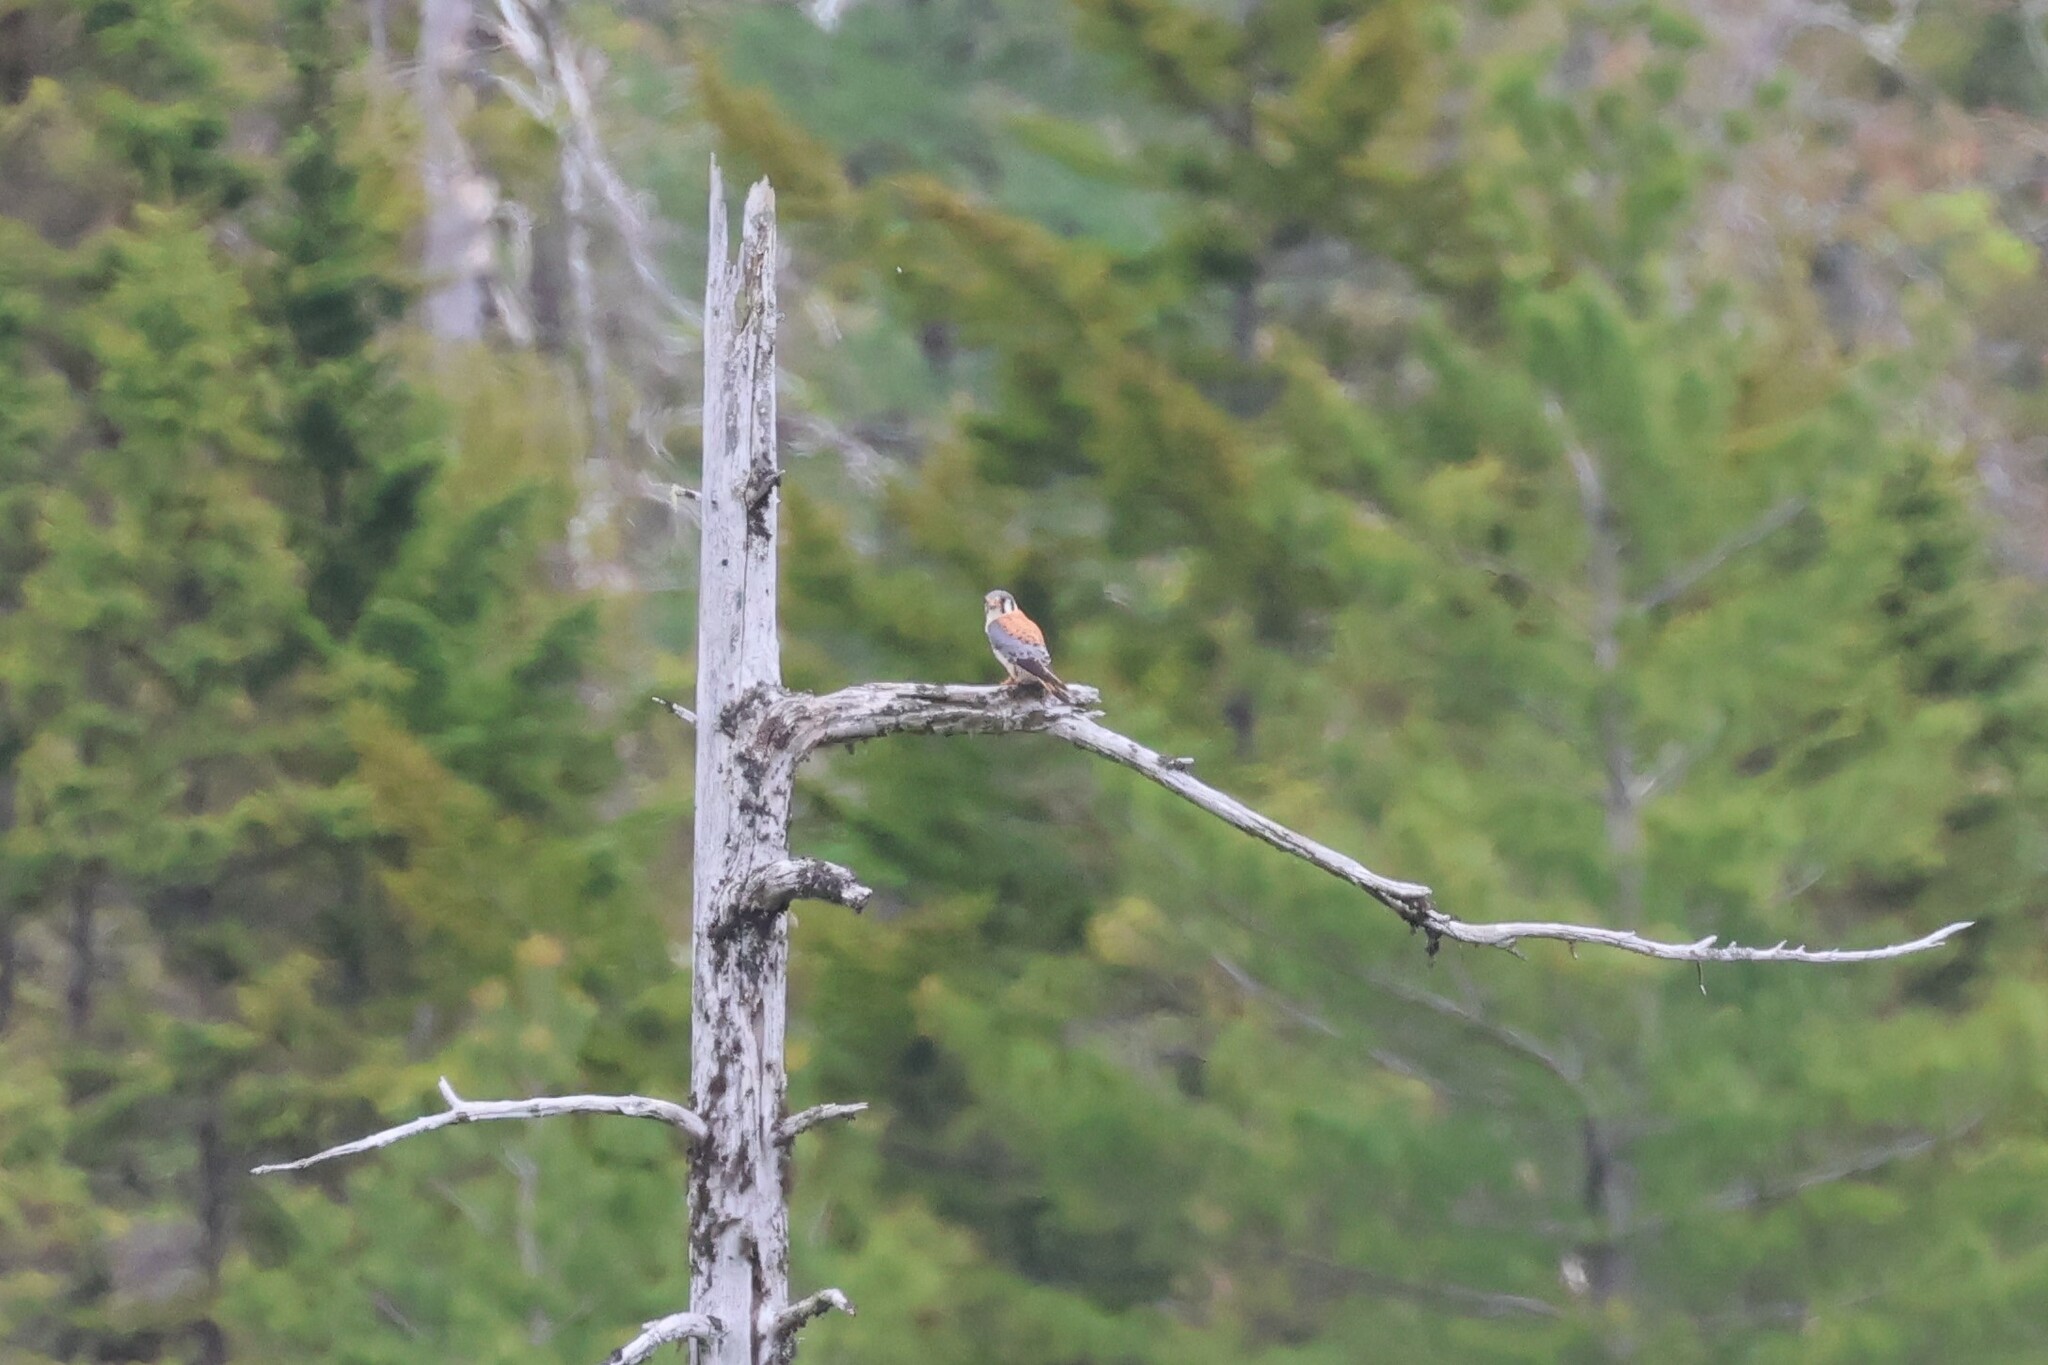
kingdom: Animalia
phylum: Chordata
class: Aves
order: Falconiformes
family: Falconidae
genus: Falco
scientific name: Falco sparverius
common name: American kestrel
